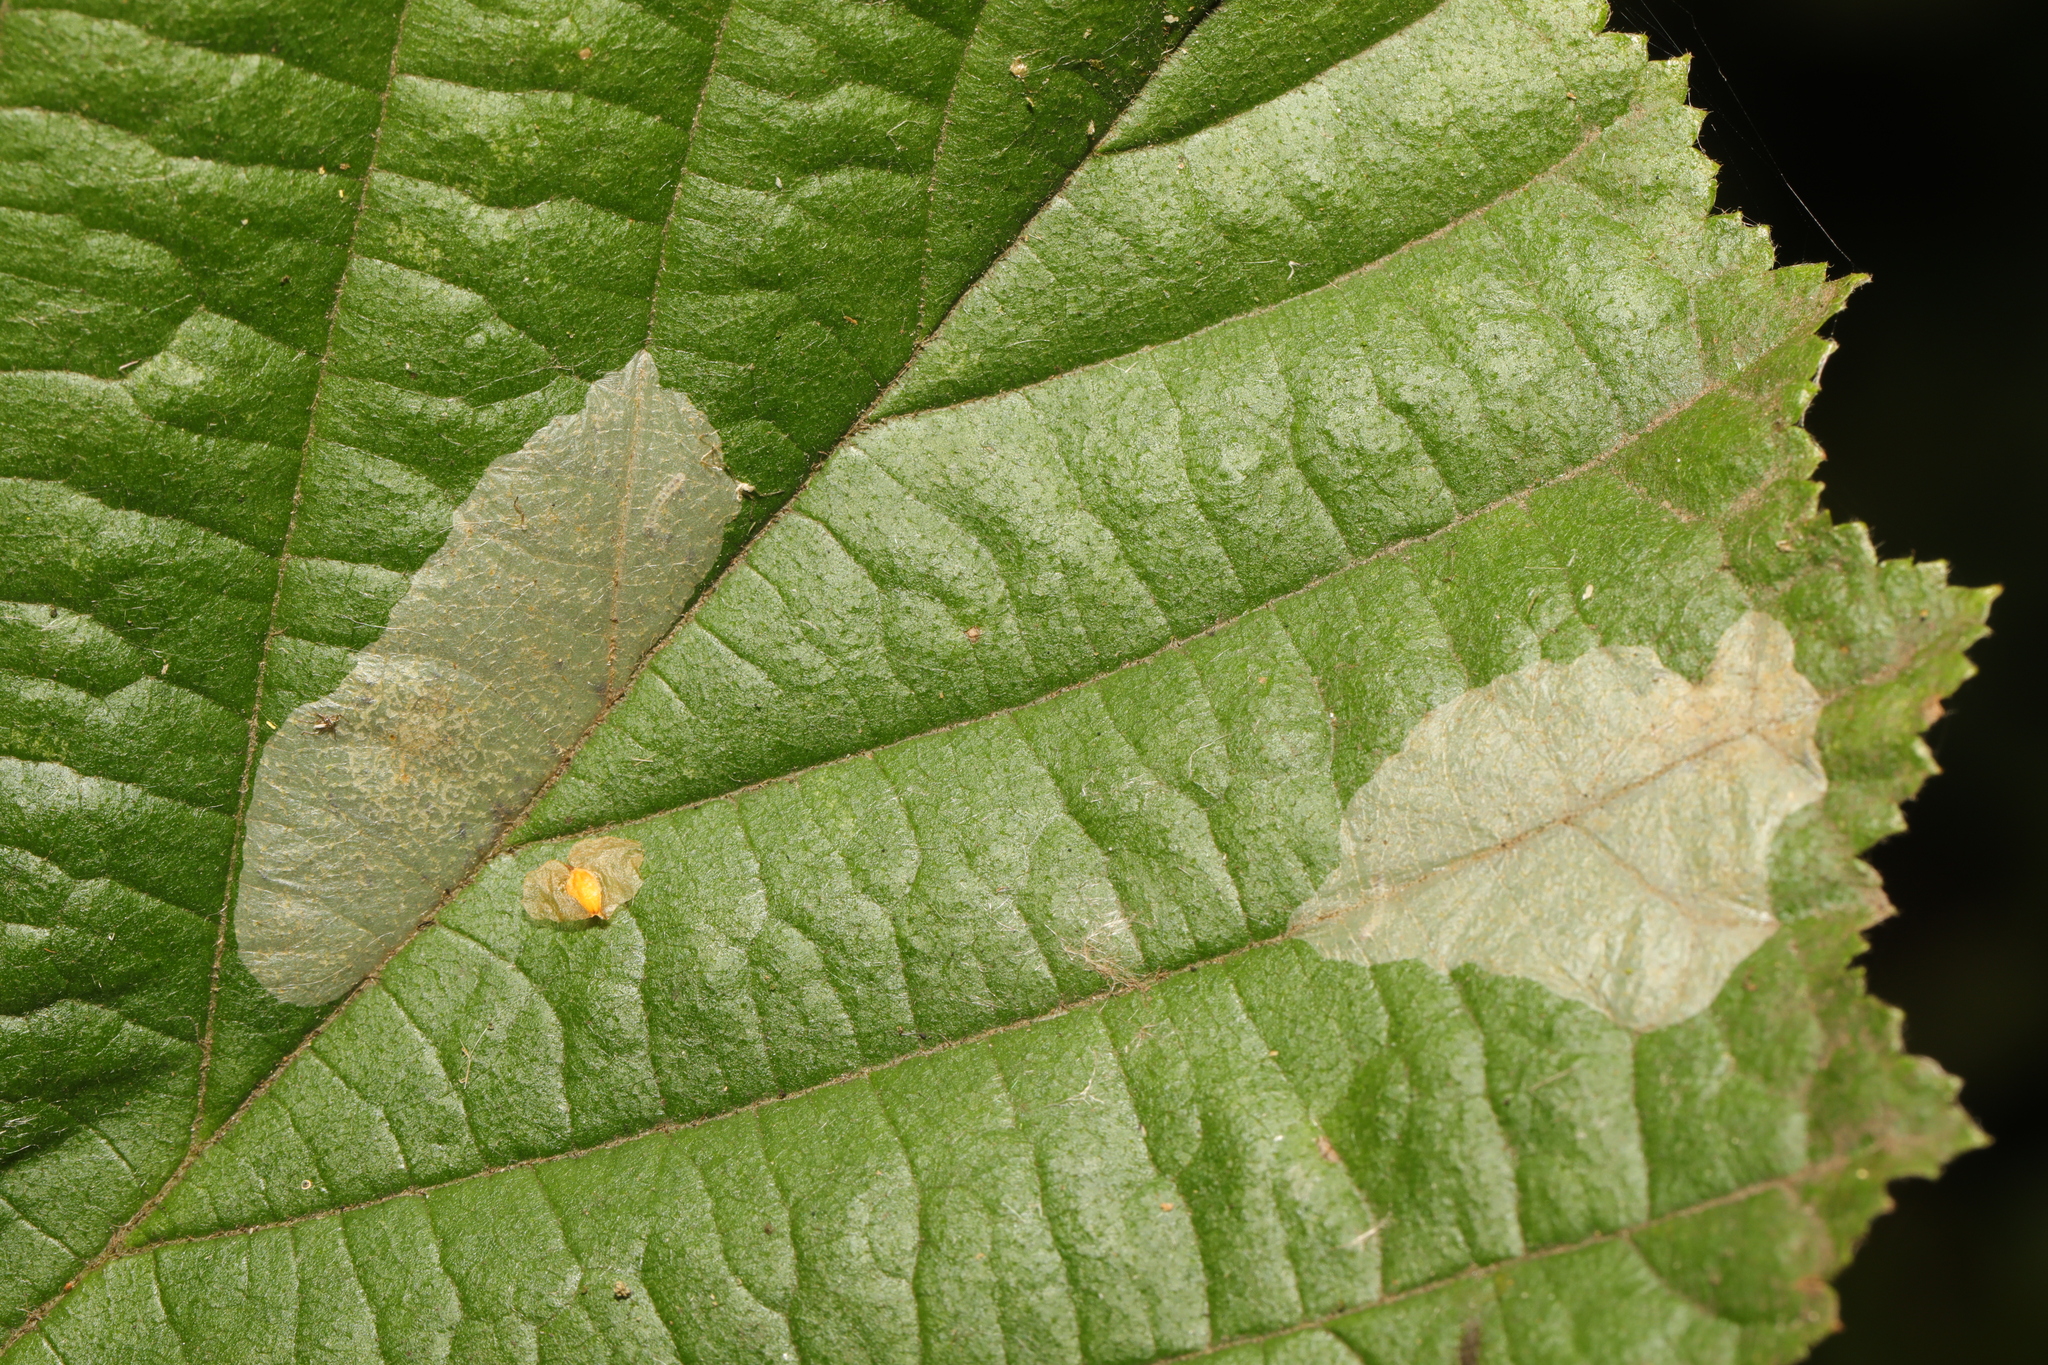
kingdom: Animalia
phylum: Arthropoda
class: Insecta
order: Lepidoptera
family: Gracillariidae
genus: Phyllonorycter
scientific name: Phyllonorycter coryli
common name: Nut-leaf blister moth
